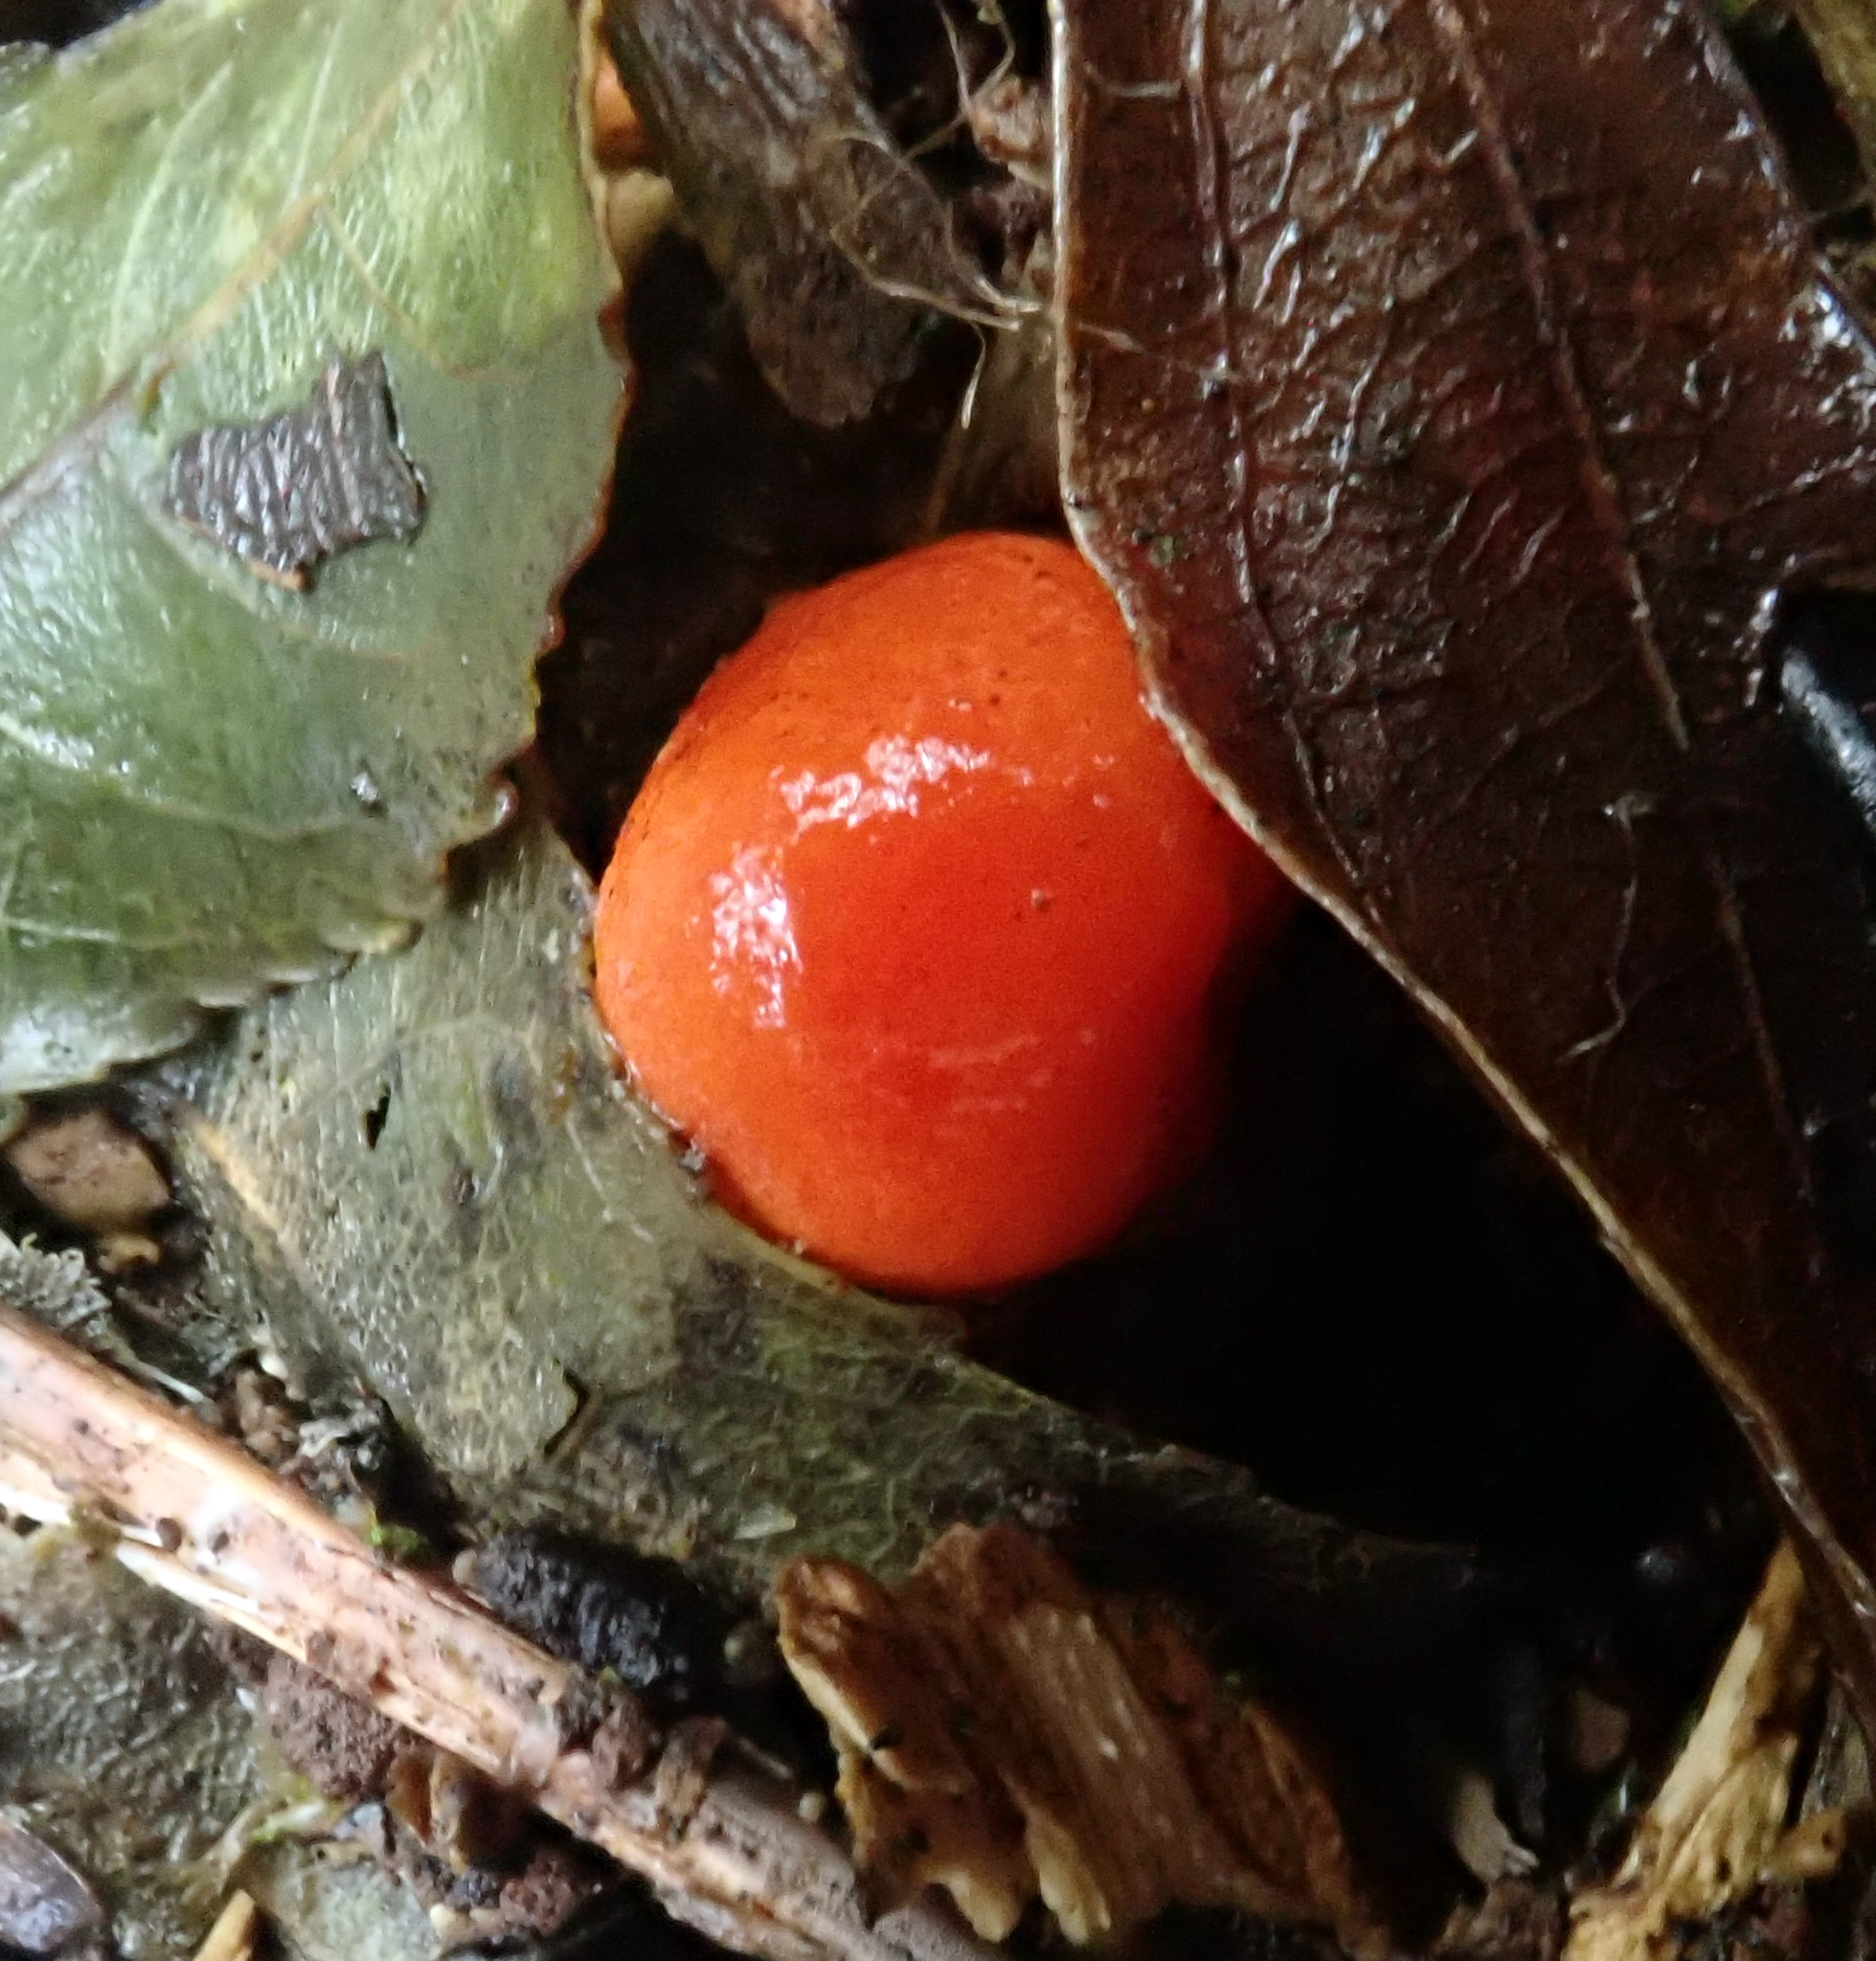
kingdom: Fungi
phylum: Basidiomycota
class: Agaricomycetes
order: Agaricales
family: Strophariaceae
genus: Leratiomyces
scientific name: Leratiomyces erythrocephalus
